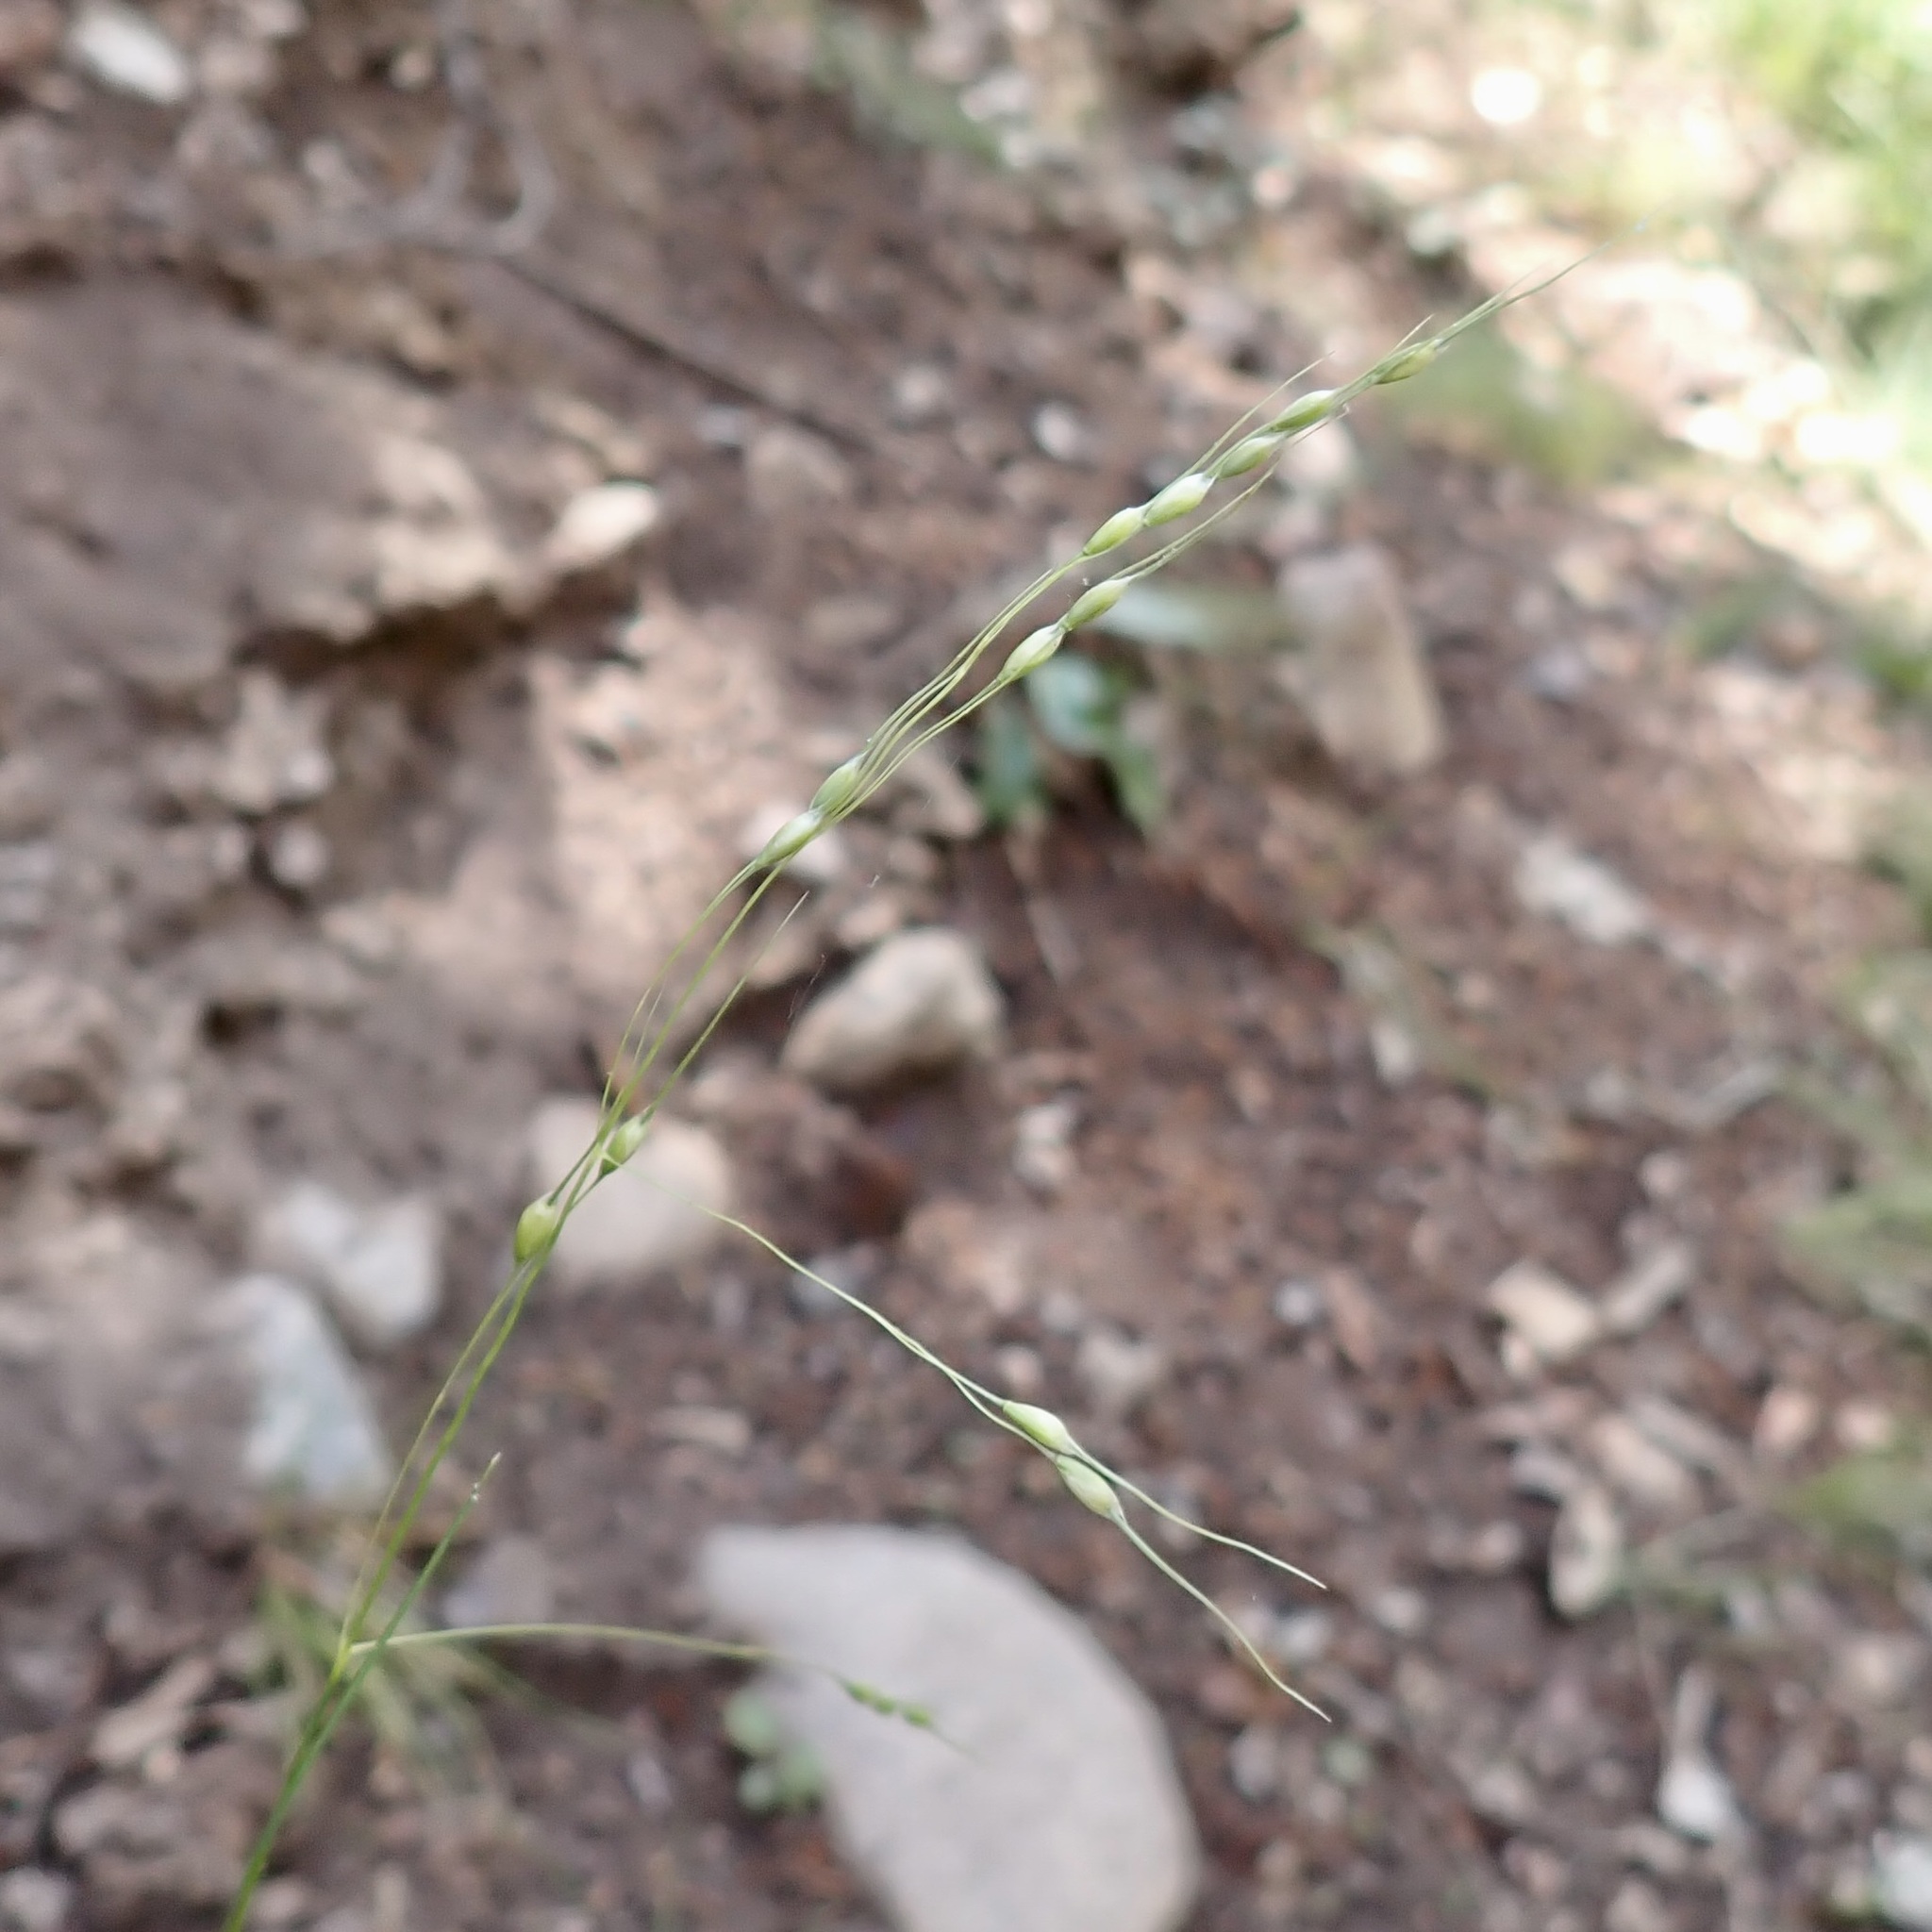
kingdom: Plantae
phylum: Tracheophyta
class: Liliopsida
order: Poales
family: Poaceae
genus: Piptochaetium
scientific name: Piptochaetium fimbriatum
